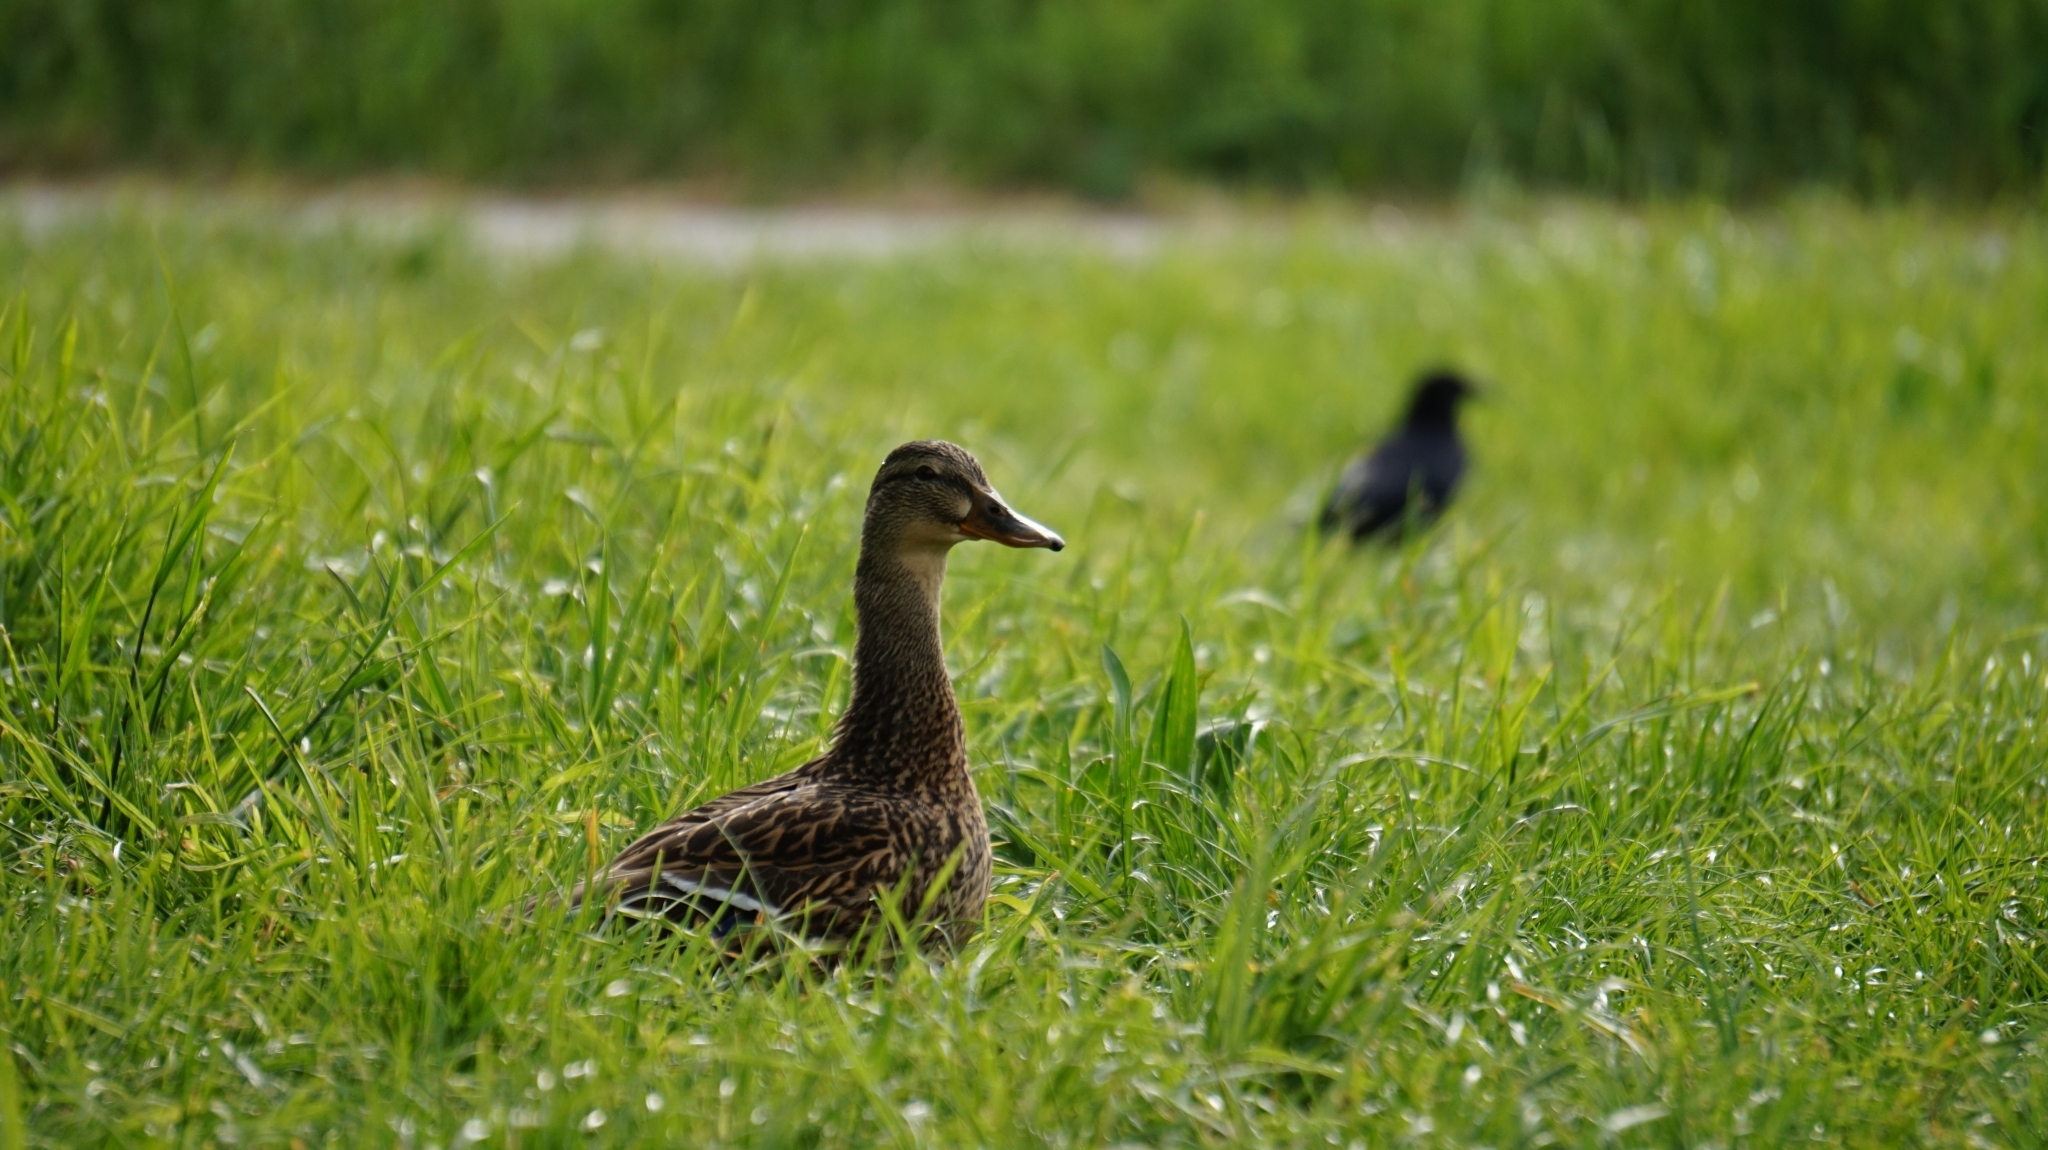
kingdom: Animalia
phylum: Chordata
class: Aves
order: Anseriformes
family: Anatidae
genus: Anas
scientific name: Anas platyrhynchos
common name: Mallard
